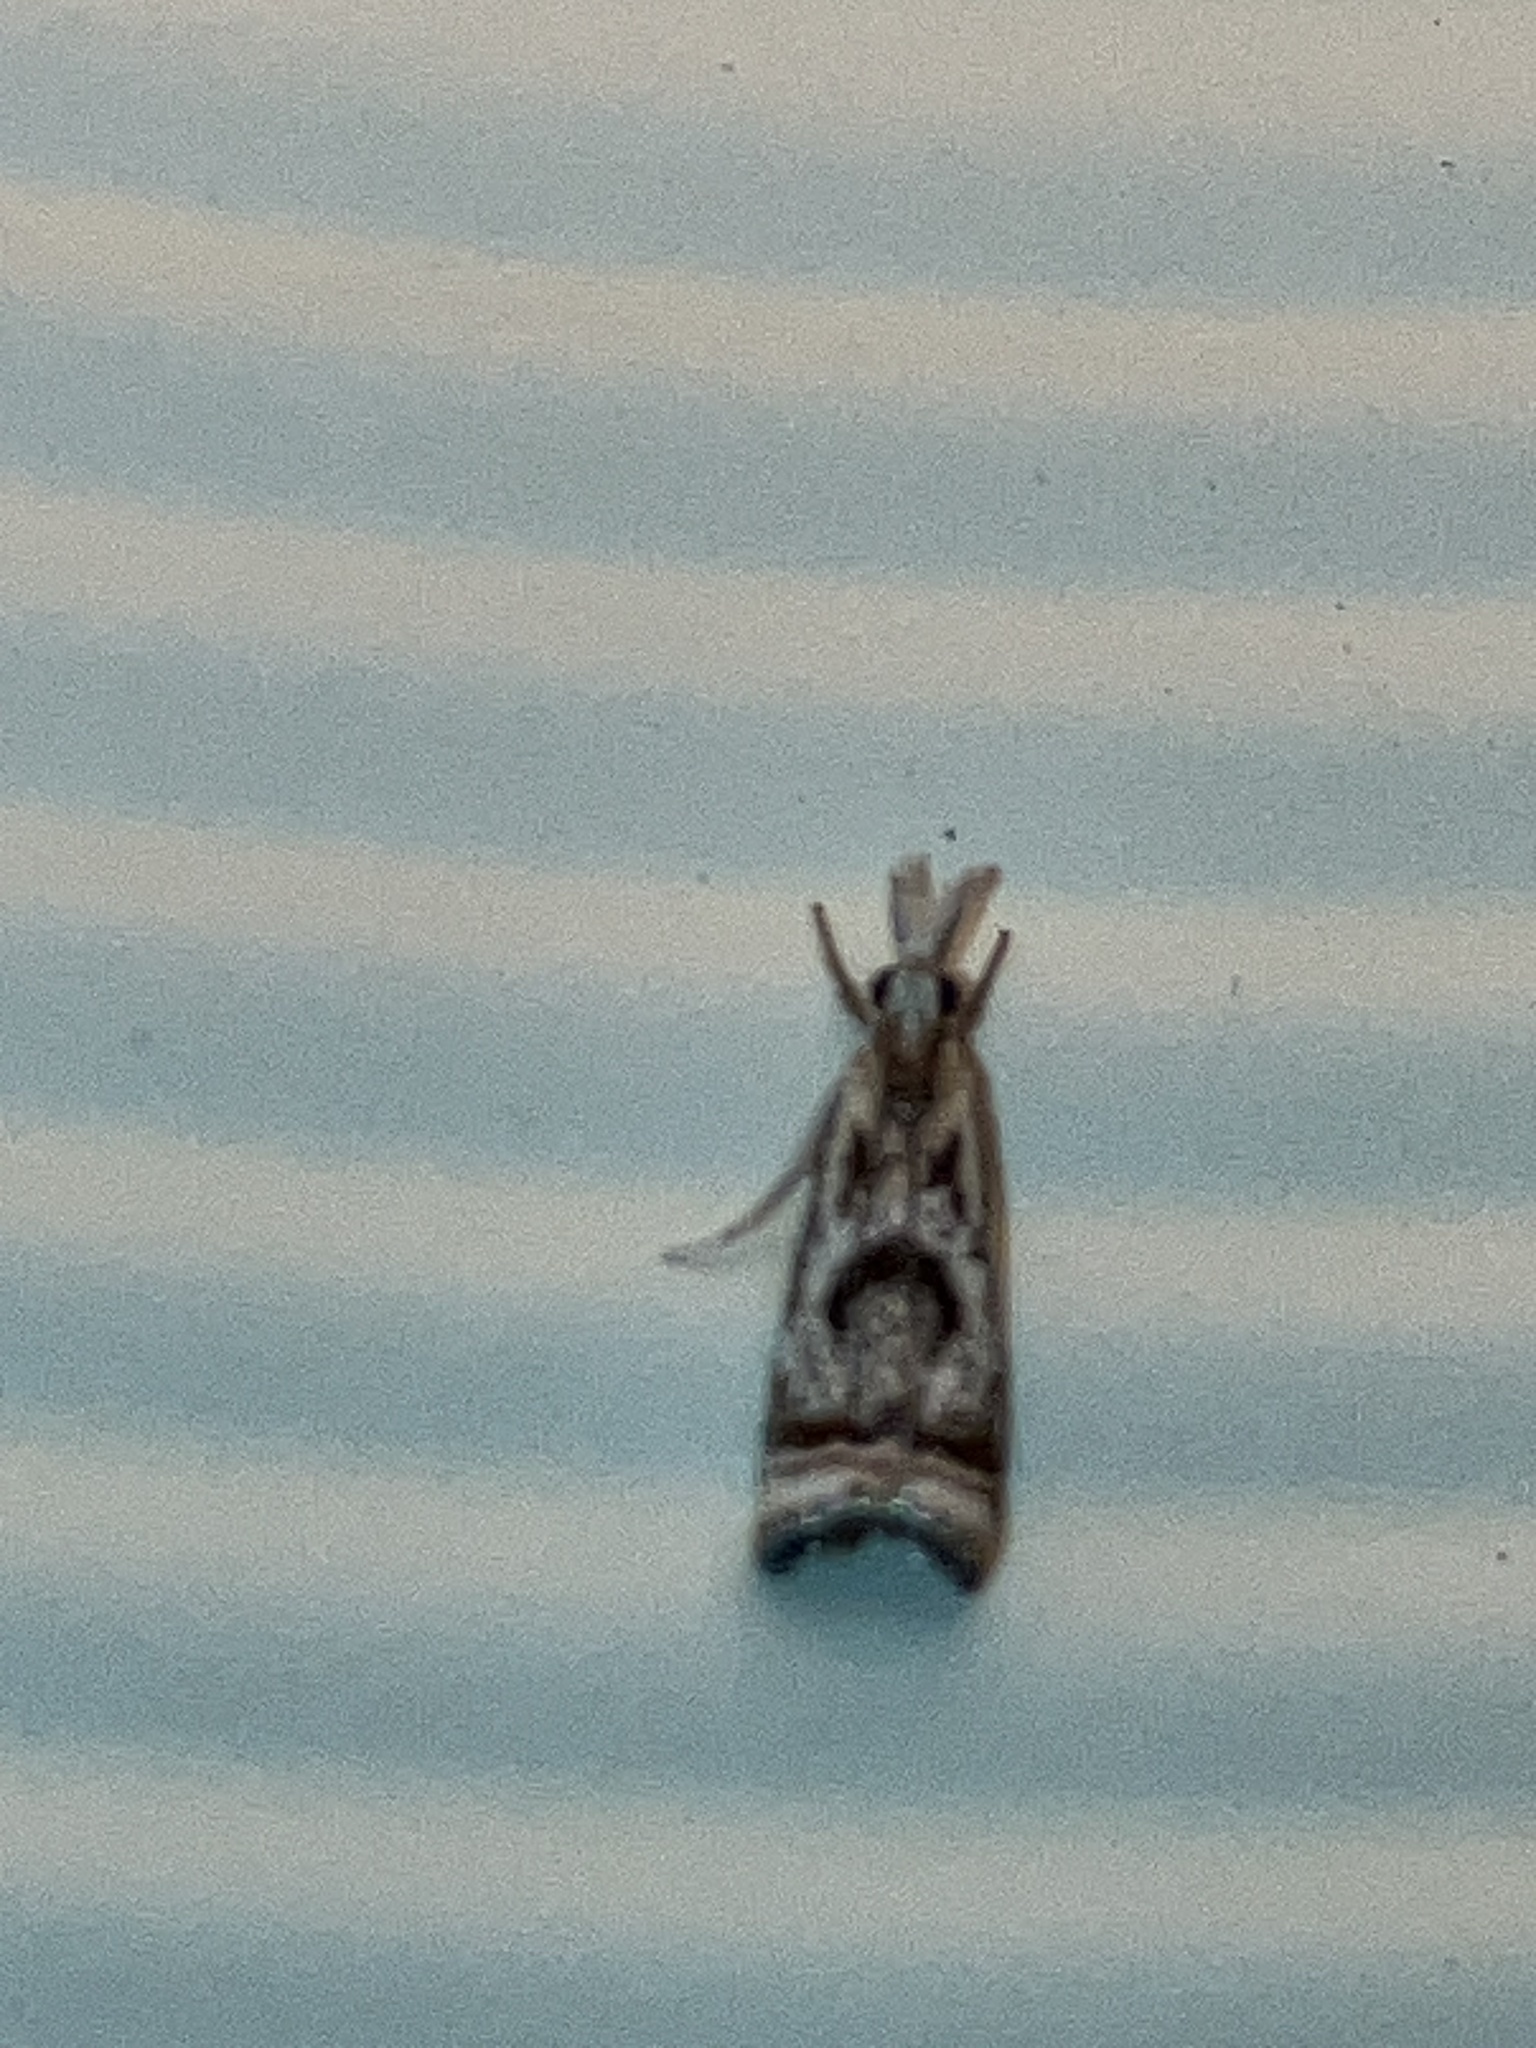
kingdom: Animalia
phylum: Arthropoda
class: Insecta
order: Lepidoptera
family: Crambidae
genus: Microcrambus
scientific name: Microcrambus elegans
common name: Elegant grass-veneer
